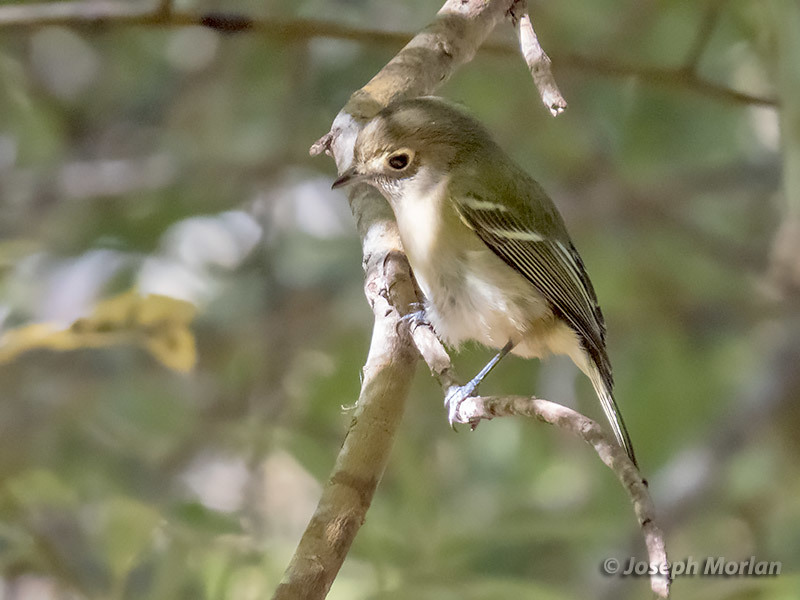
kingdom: Animalia
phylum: Chordata
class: Aves
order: Passeriformes
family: Vireonidae
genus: Vireo
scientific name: Vireo huttoni
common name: Hutton's vireo
